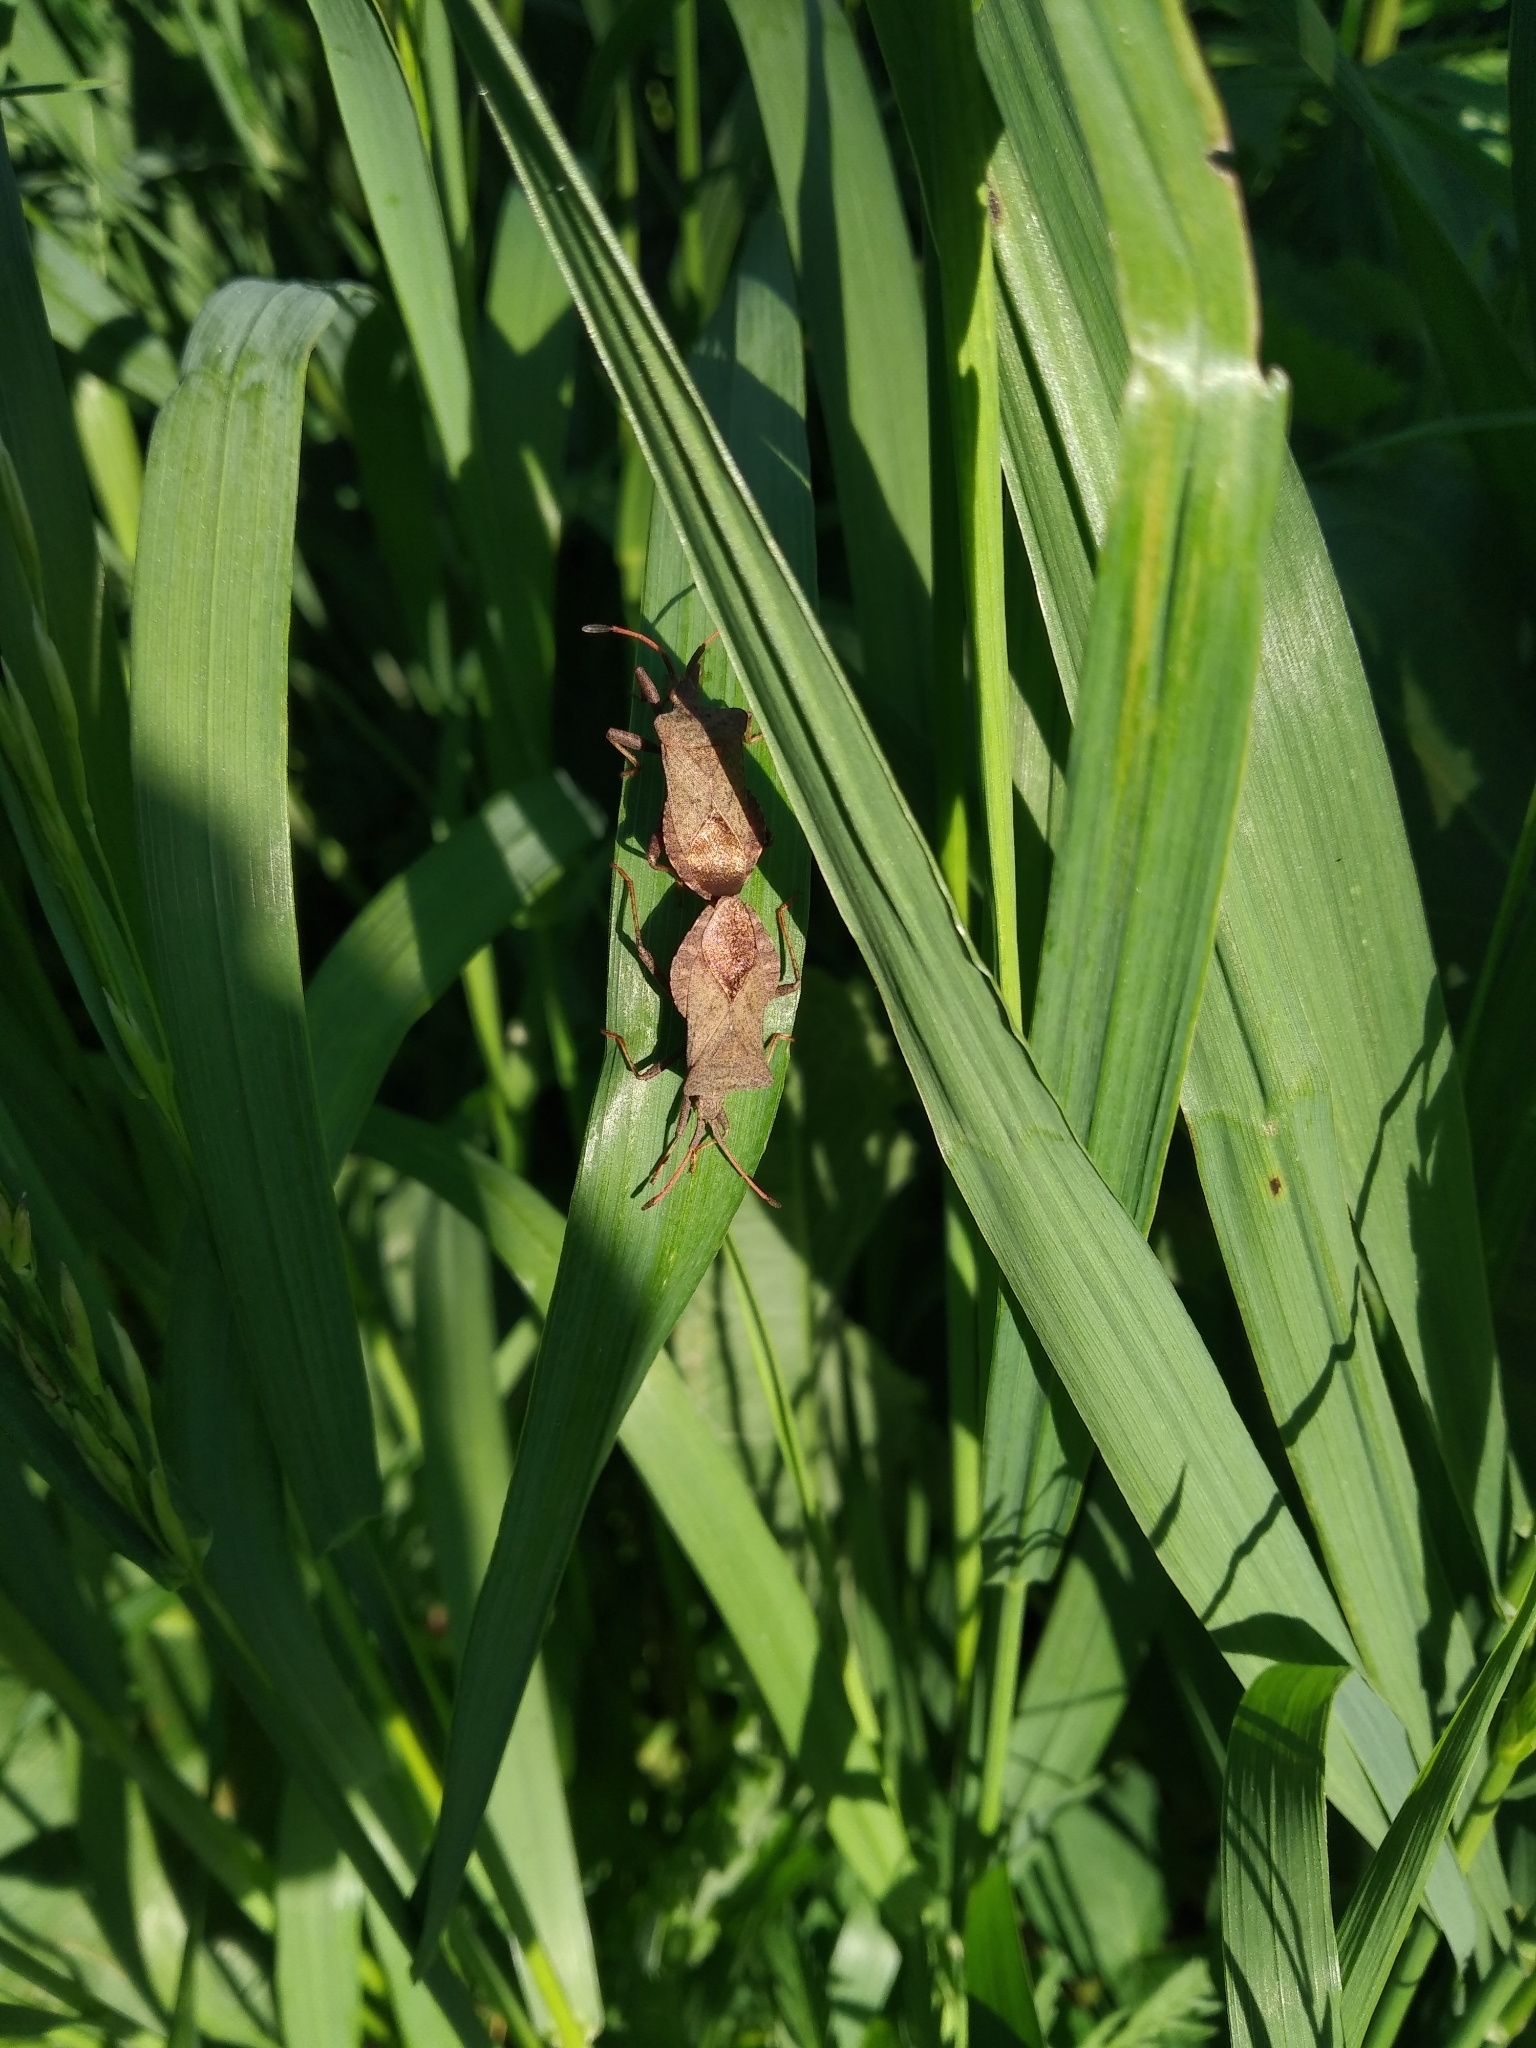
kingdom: Animalia
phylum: Arthropoda
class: Insecta
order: Hemiptera
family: Coreidae
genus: Coreus
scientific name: Coreus marginatus
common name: Dock bug
